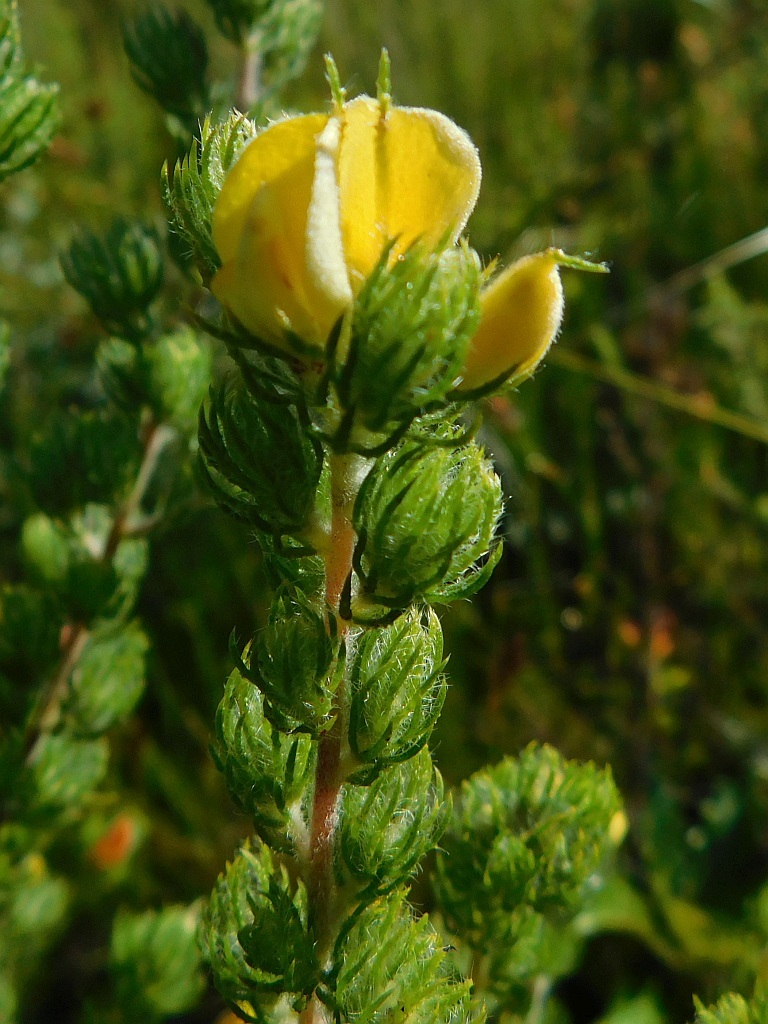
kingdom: Plantae
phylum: Tracheophyta
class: Magnoliopsida
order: Fabales
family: Fabaceae
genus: Aspalathus
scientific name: Aspalathus ciliaris
